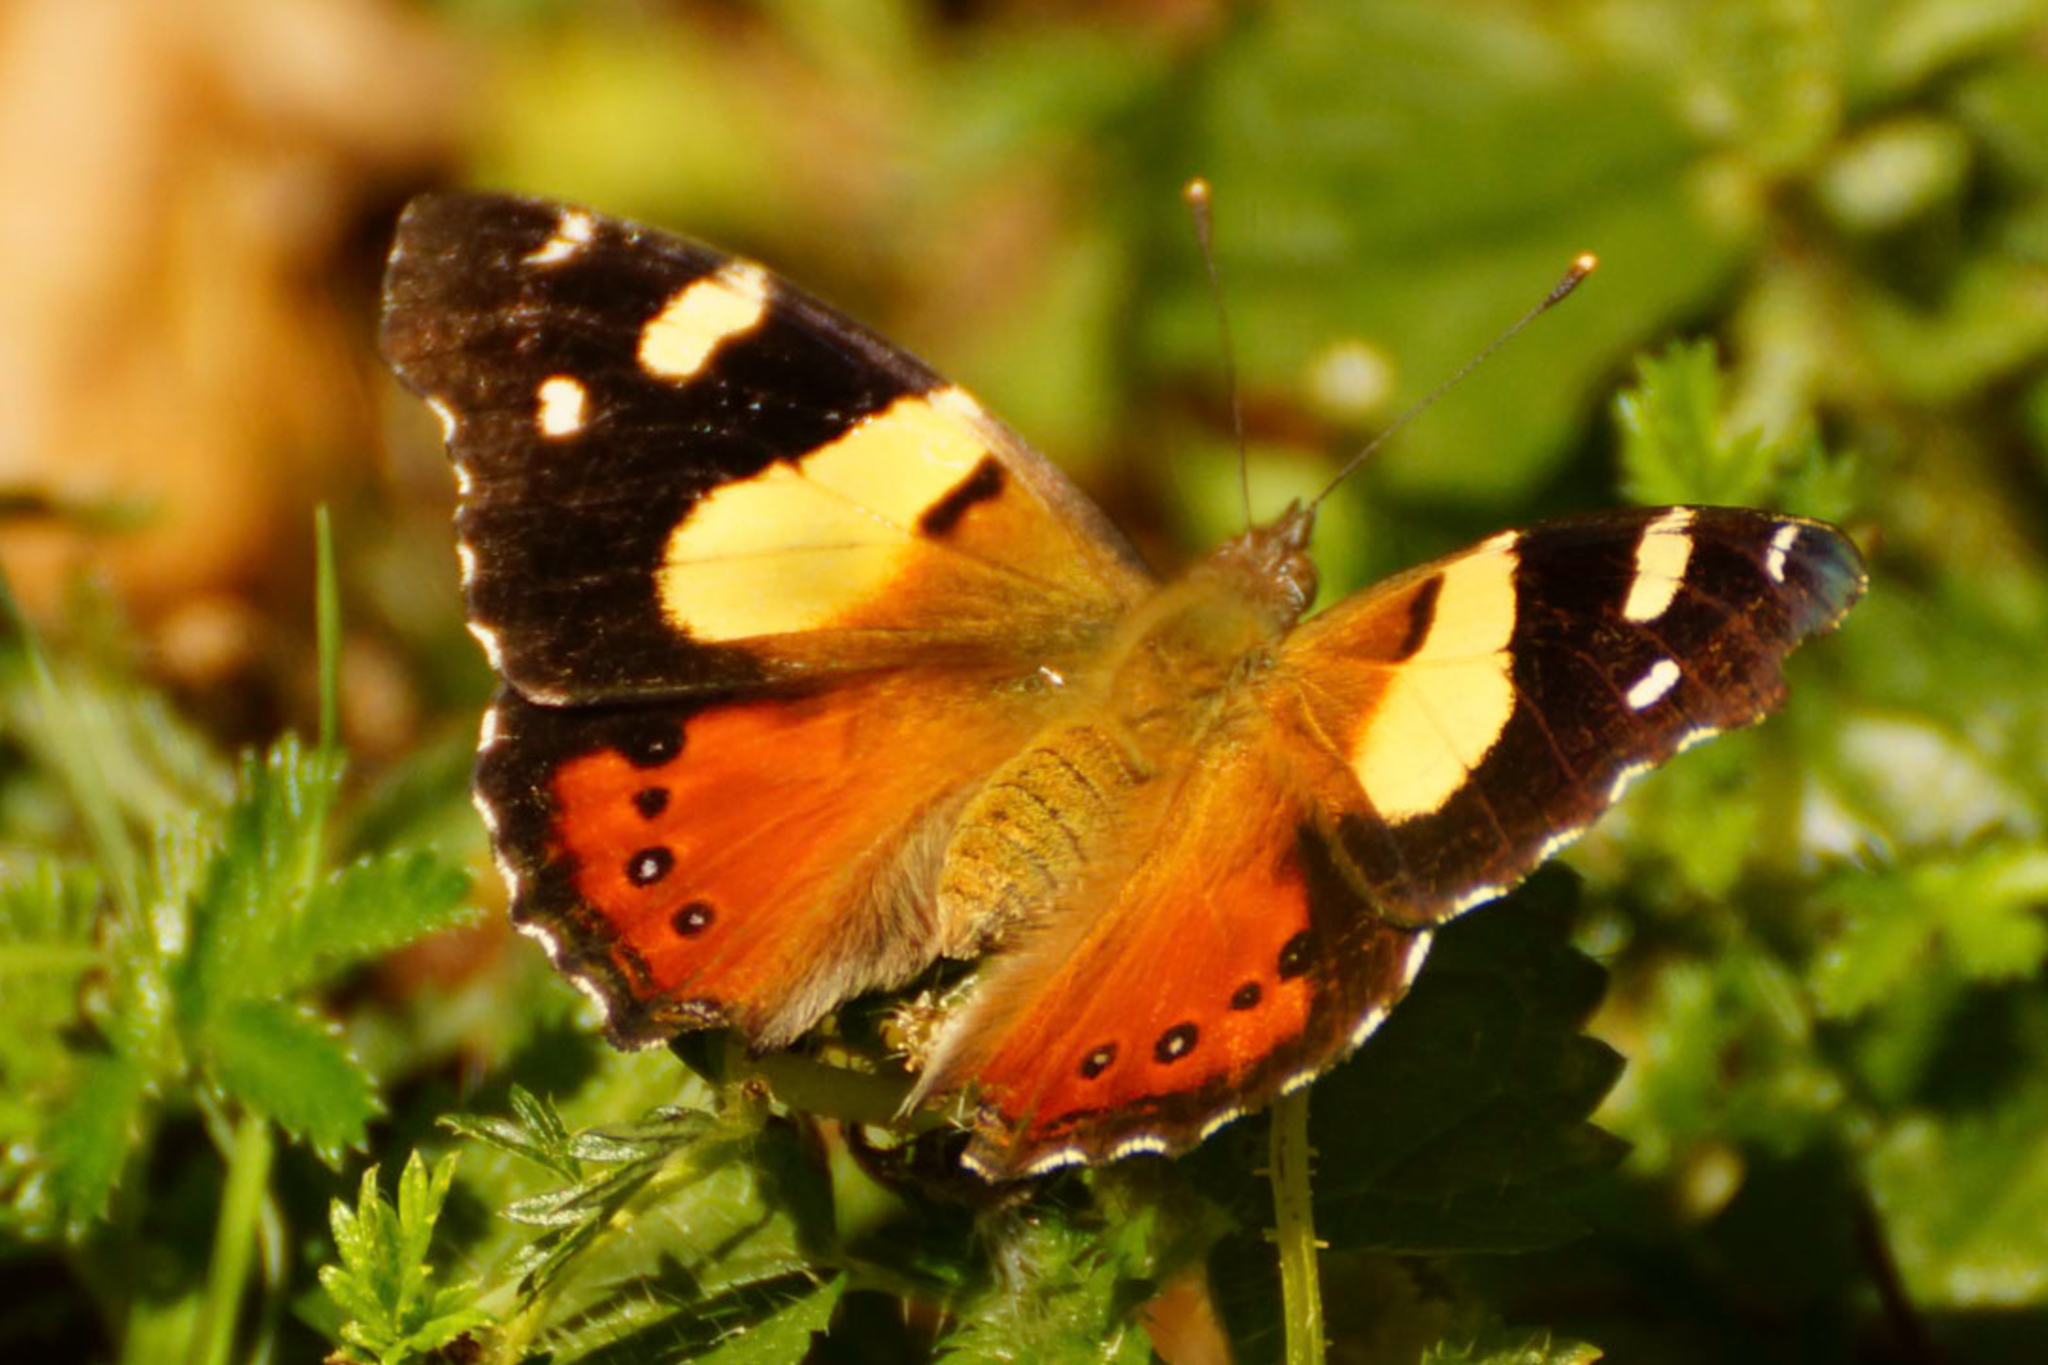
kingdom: Animalia
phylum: Arthropoda
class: Insecta
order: Lepidoptera
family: Nymphalidae
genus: Vanessa
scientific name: Vanessa itea
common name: Yellow admiral
